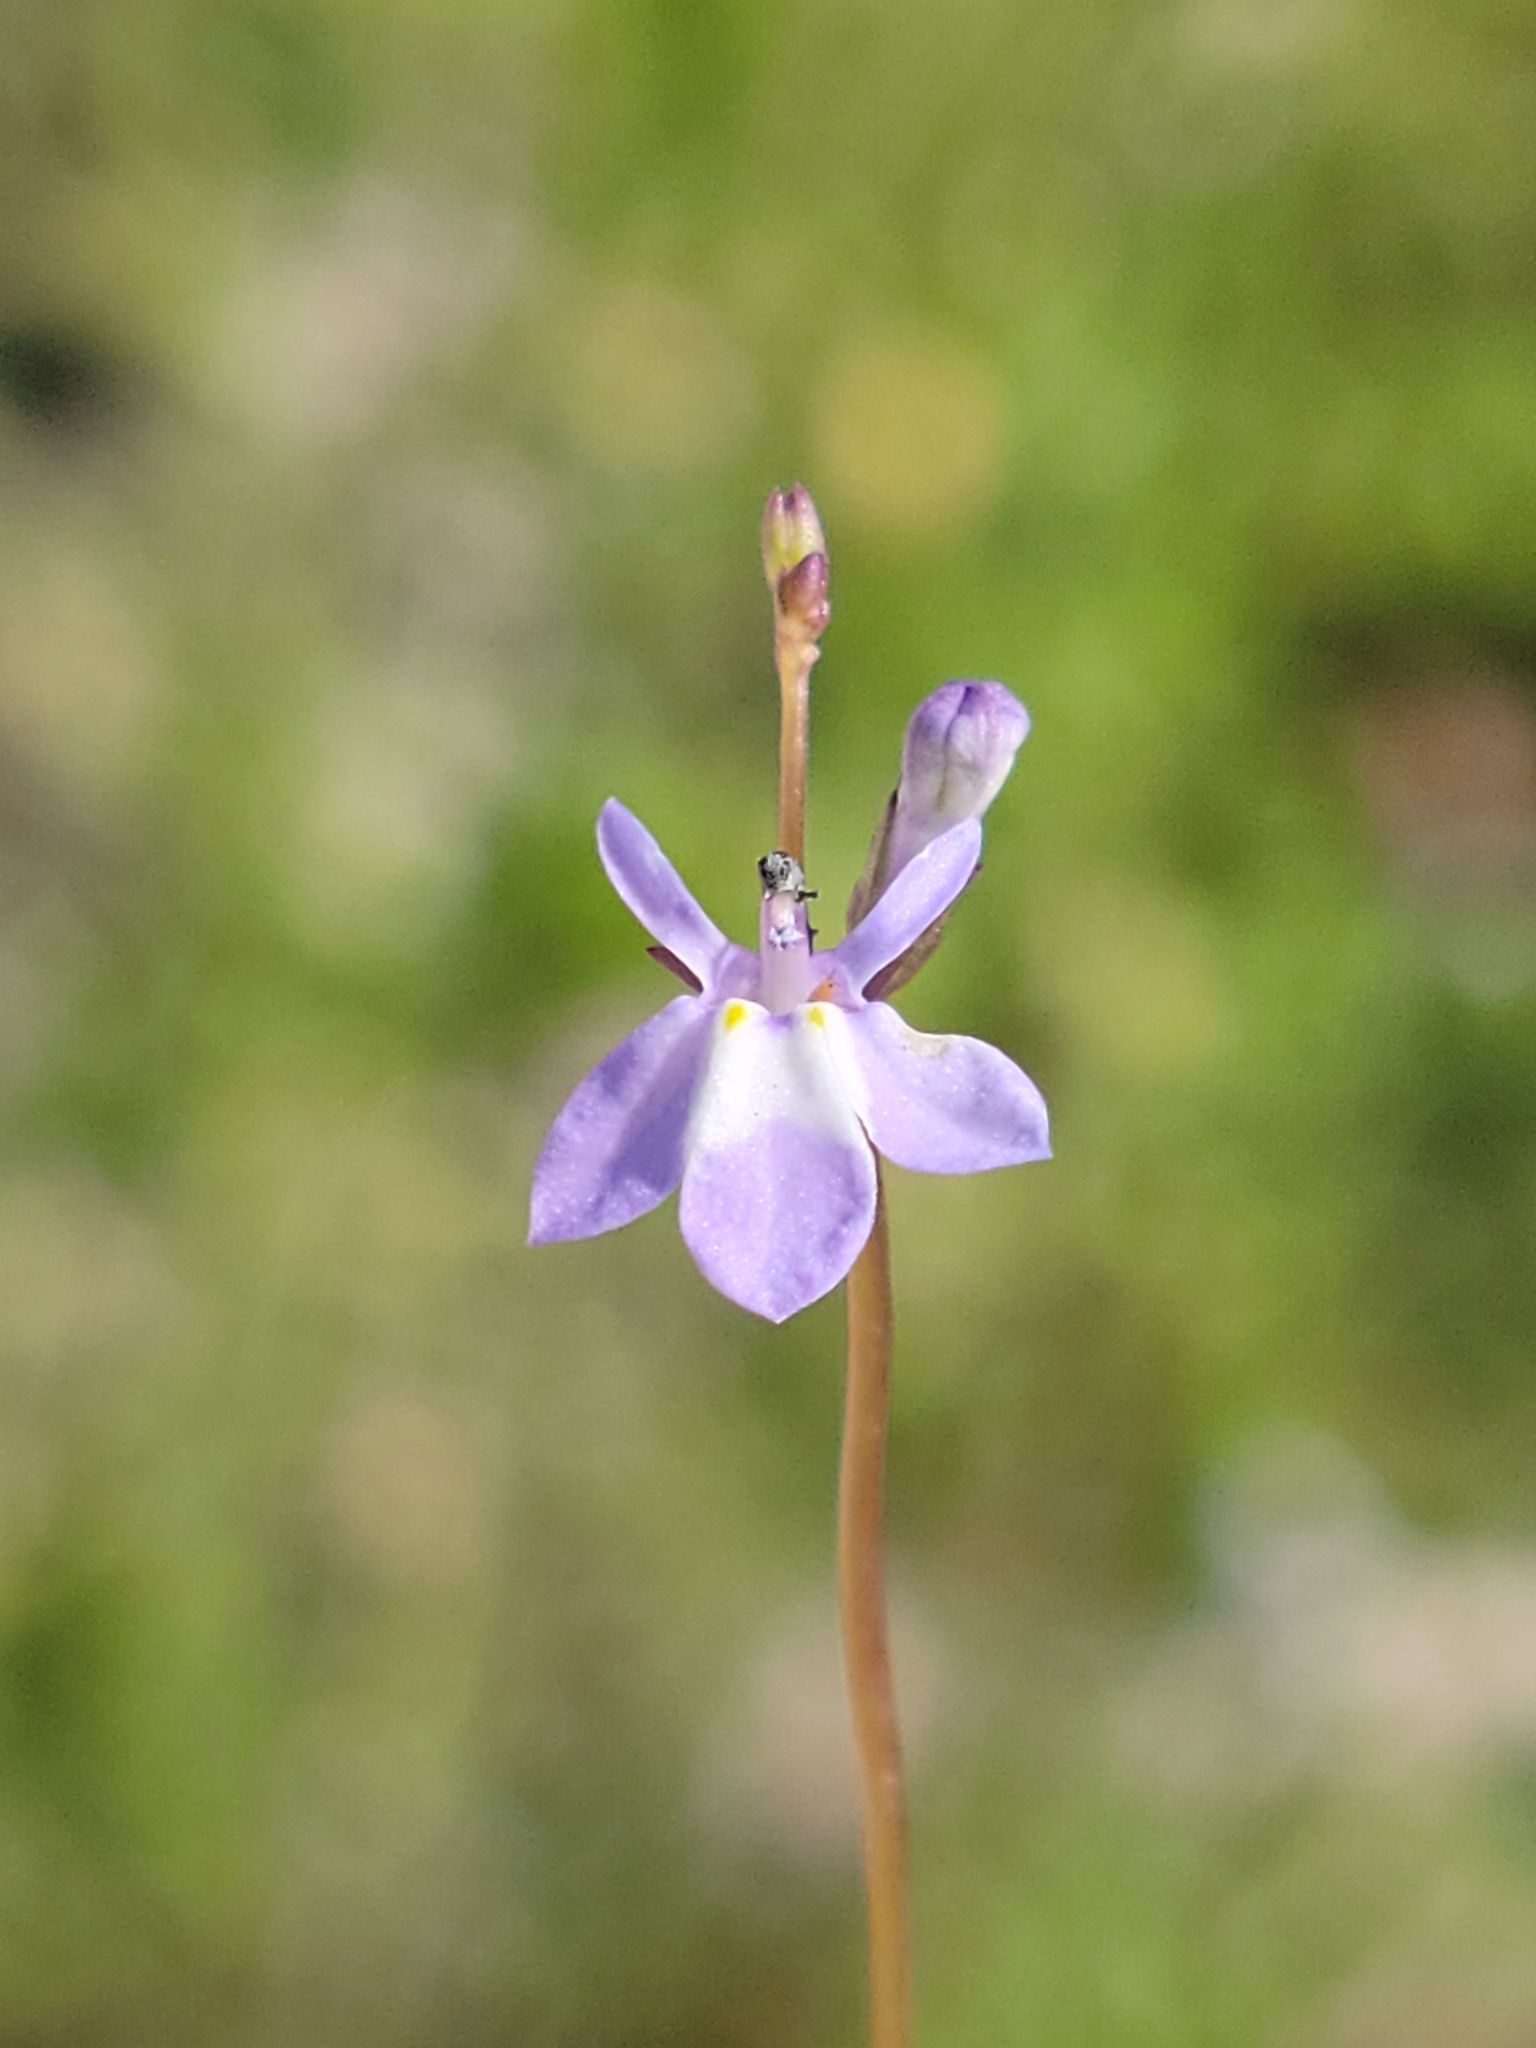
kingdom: Plantae
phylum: Tracheophyta
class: Magnoliopsida
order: Asterales
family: Campanulaceae
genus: Lobelia
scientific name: Lobelia feayana
